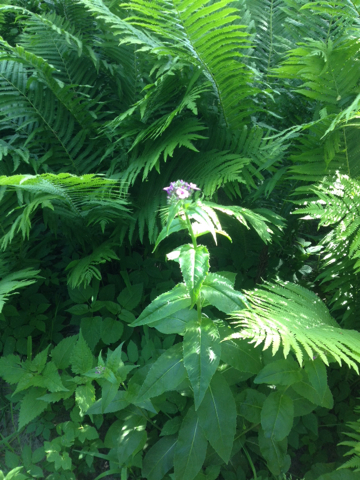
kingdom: Plantae
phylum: Tracheophyta
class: Magnoliopsida
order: Brassicales
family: Brassicaceae
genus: Hesperis
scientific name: Hesperis matronalis
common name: Dame's-violet
